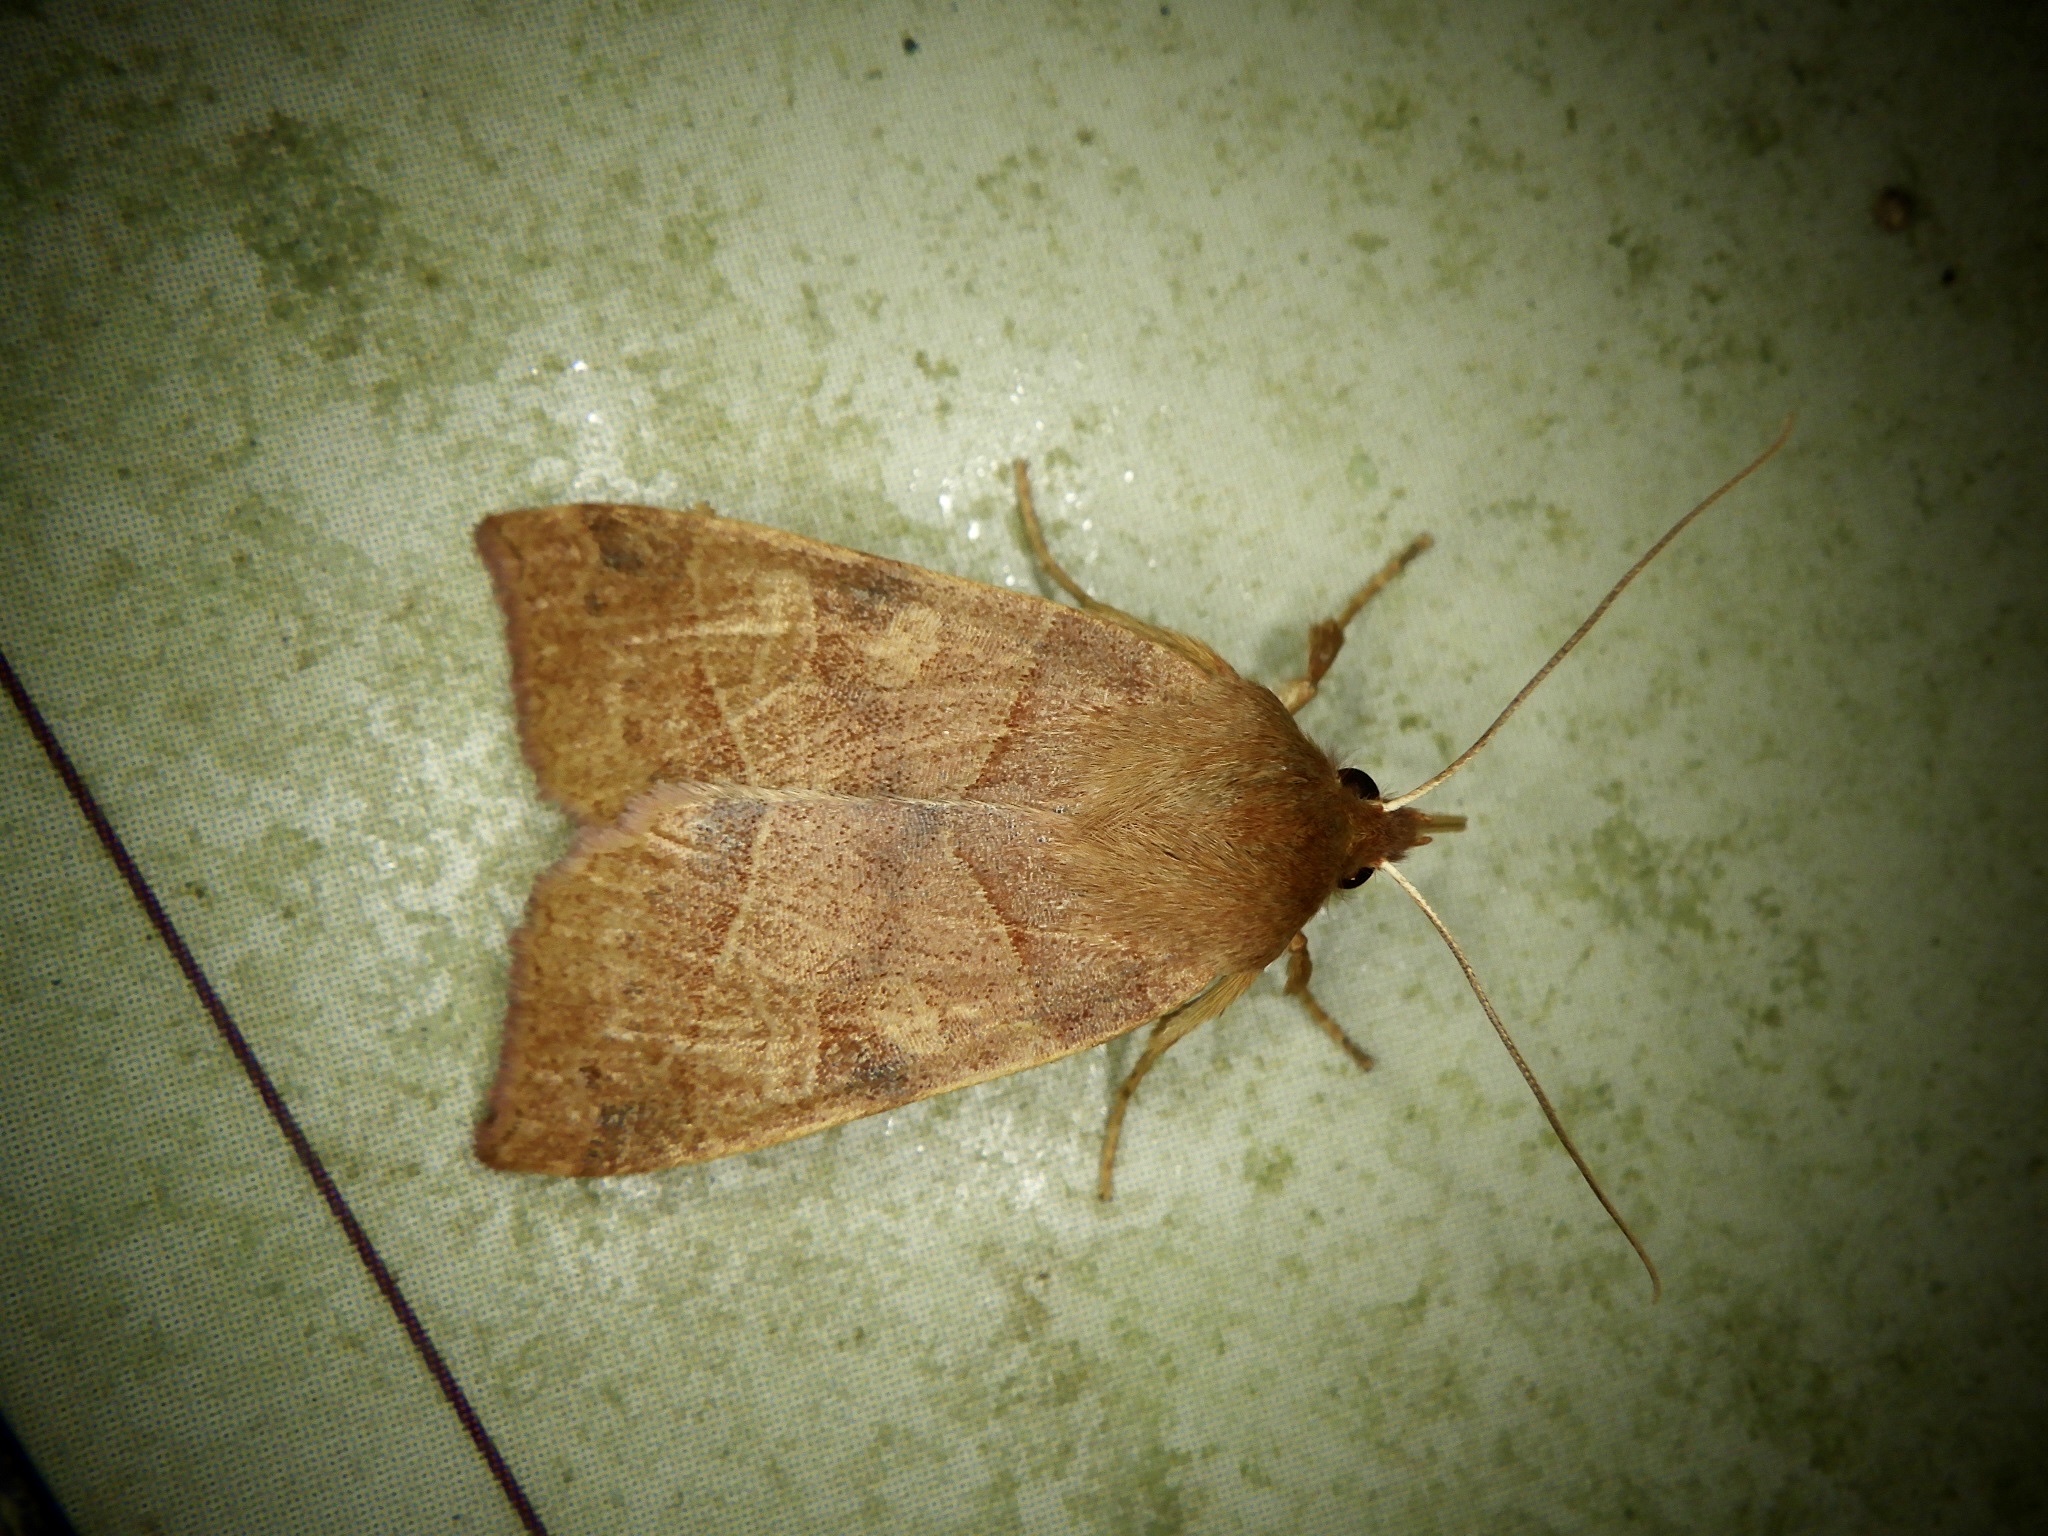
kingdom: Animalia
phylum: Arthropoda
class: Insecta
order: Lepidoptera
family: Noctuidae
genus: Telorta
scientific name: Telorta edentata
